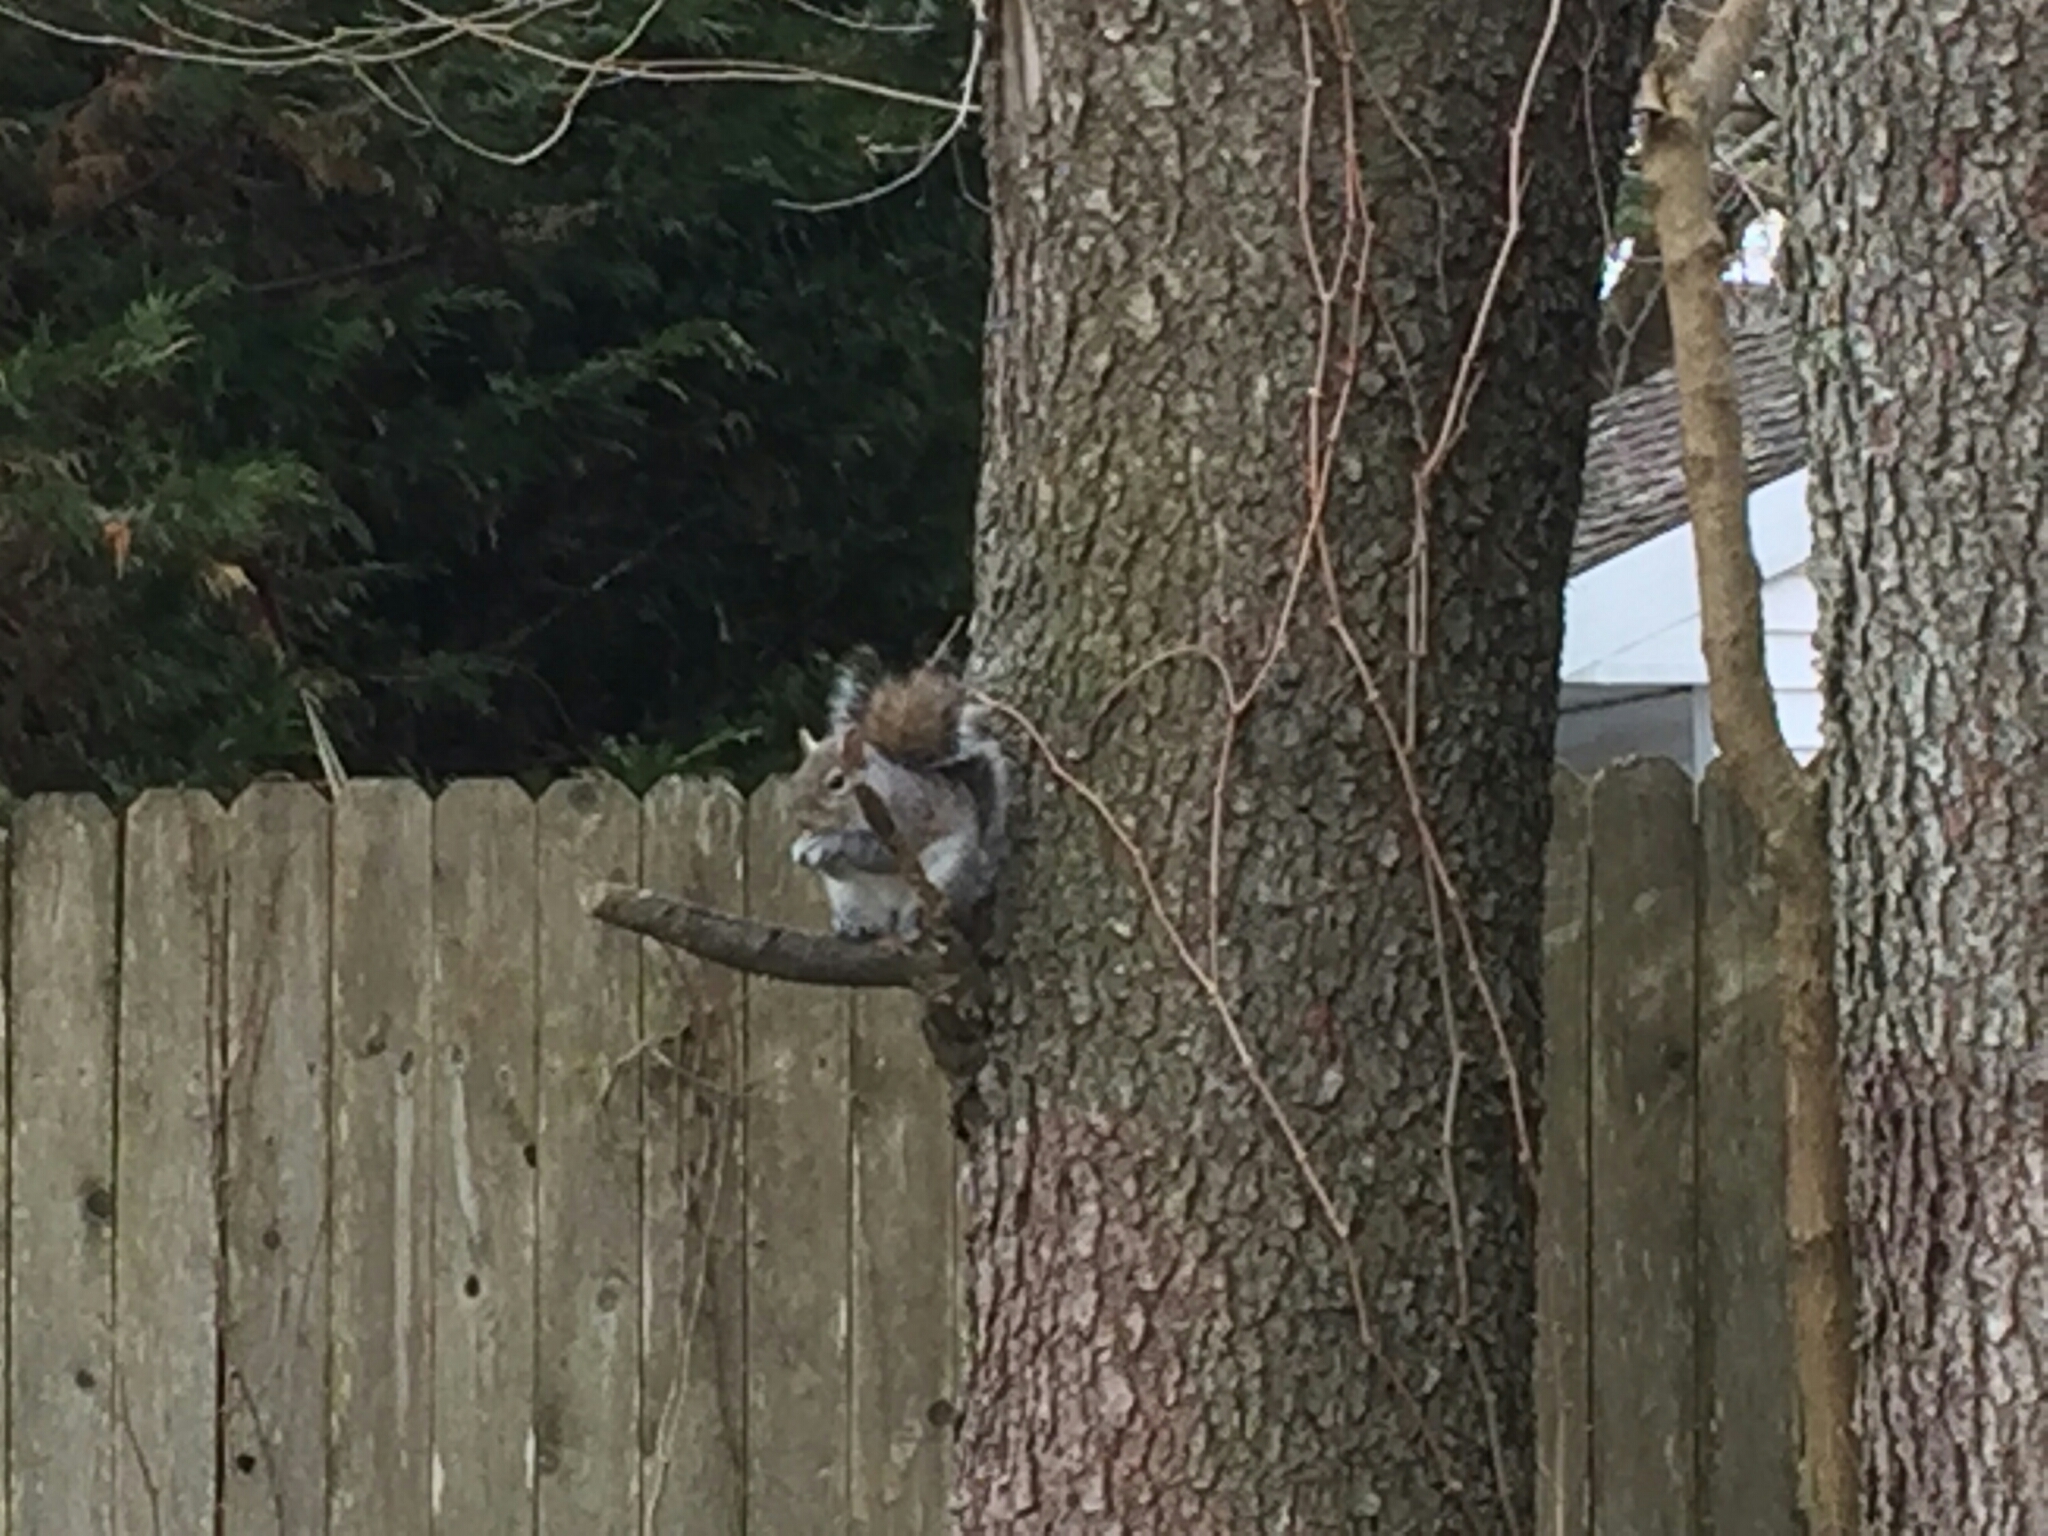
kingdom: Animalia
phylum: Chordata
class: Mammalia
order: Rodentia
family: Sciuridae
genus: Sciurus
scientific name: Sciurus carolinensis
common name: Eastern gray squirrel
